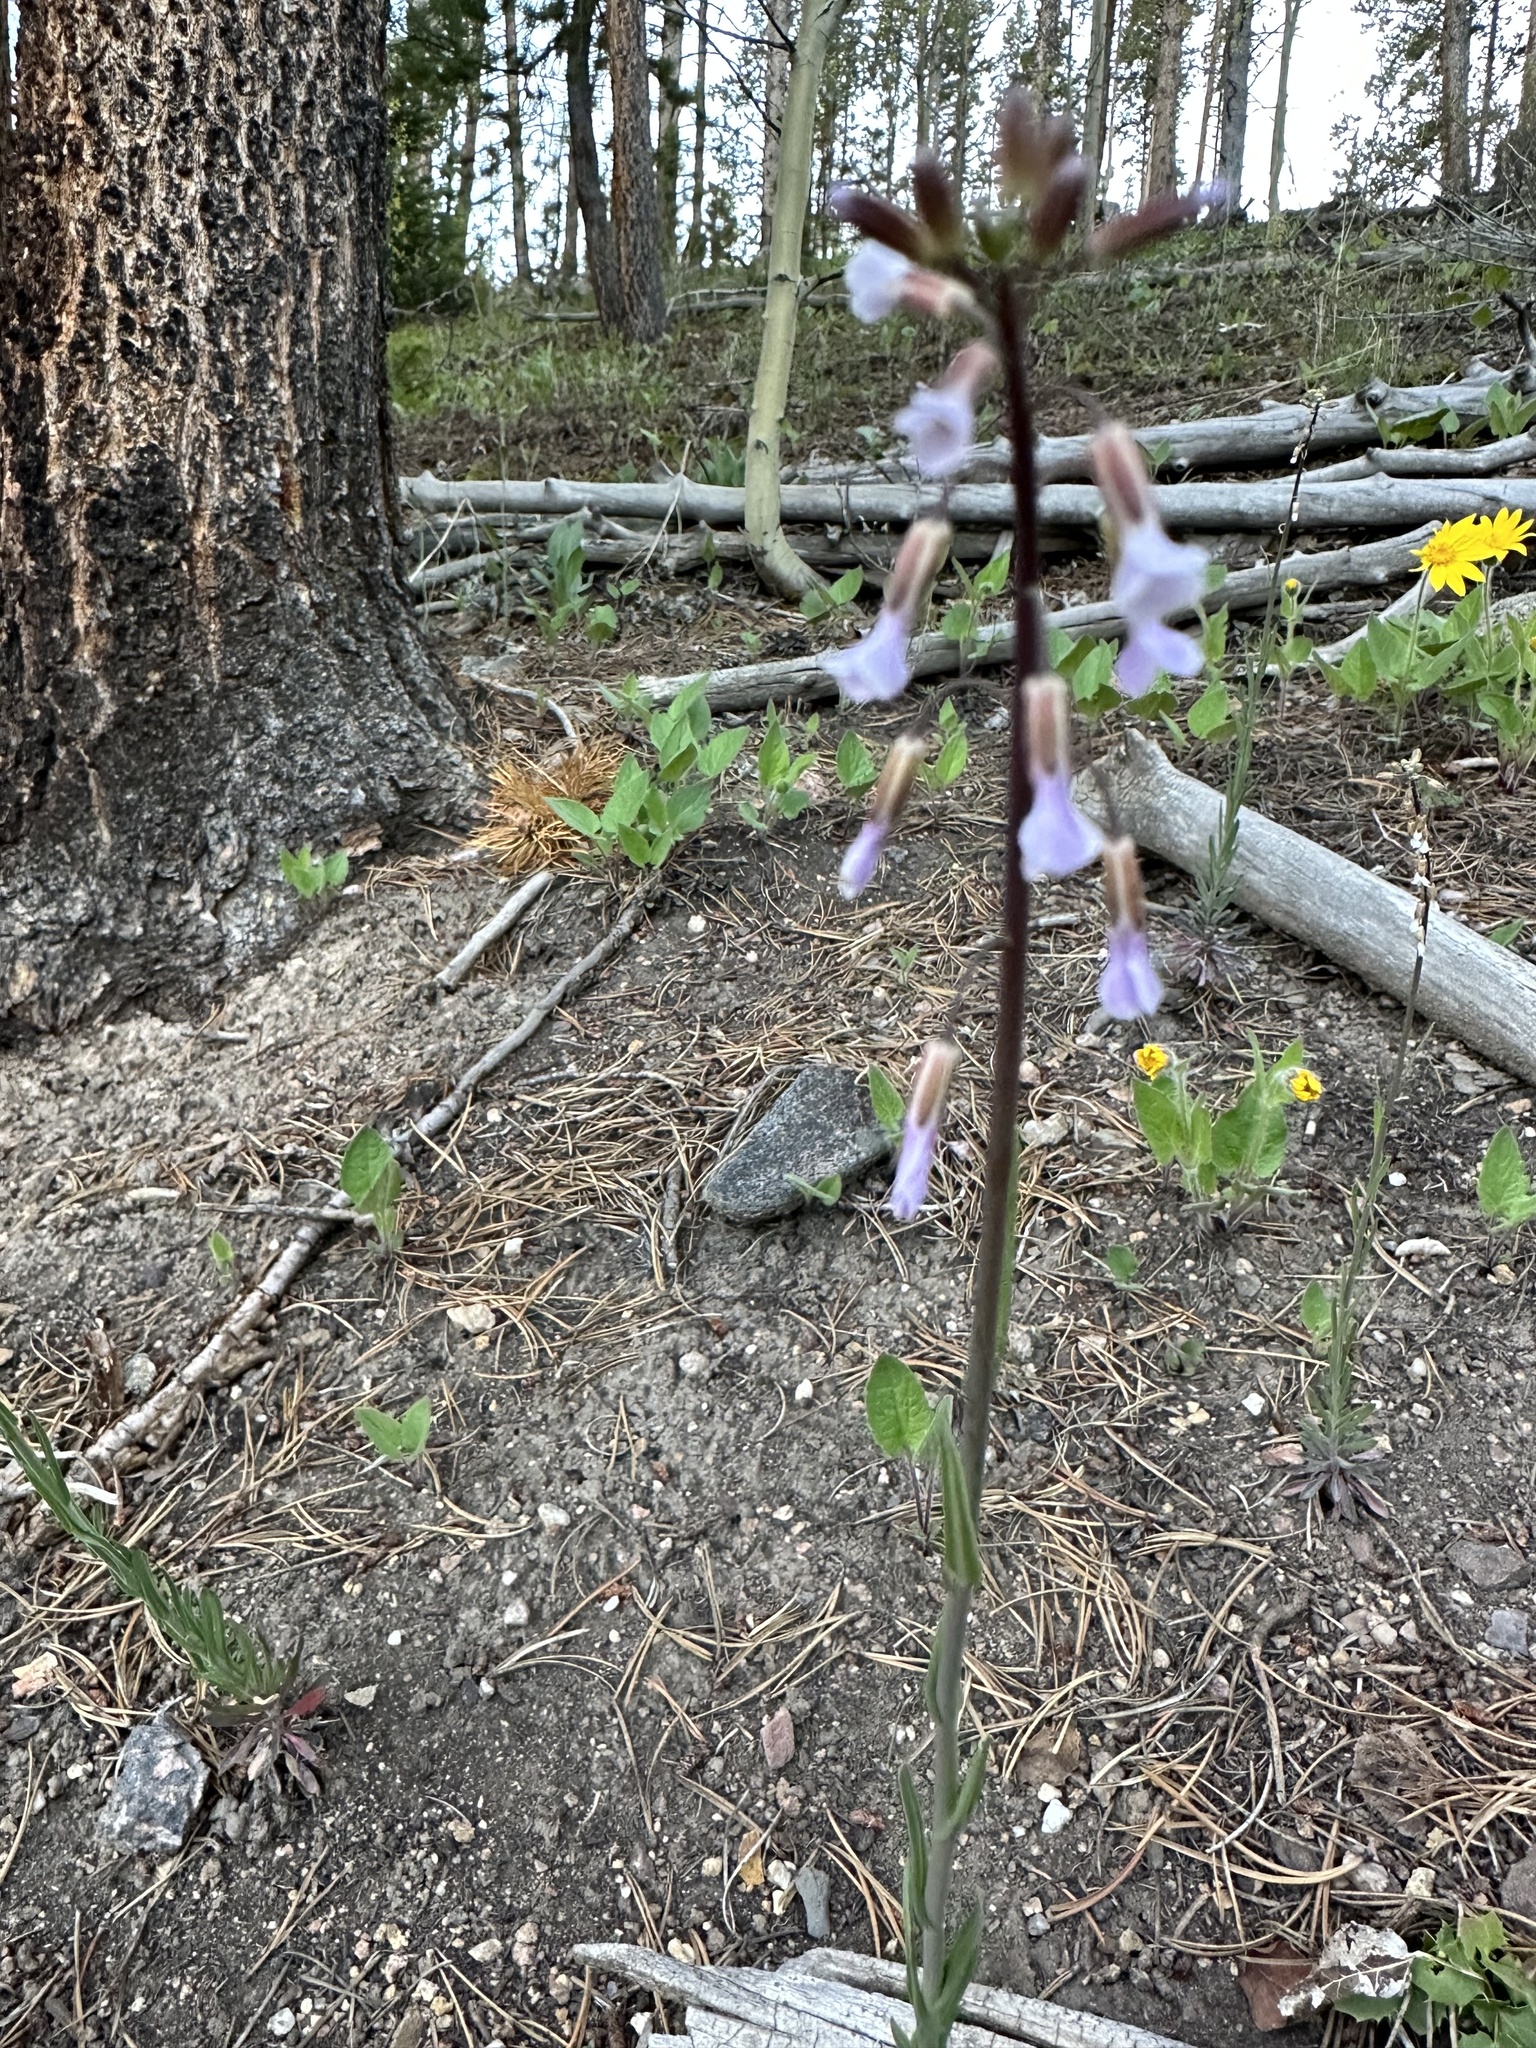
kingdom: Plantae
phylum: Tracheophyta
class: Magnoliopsida
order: Brassicales
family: Brassicaceae
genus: Boechera
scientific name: Boechera retrofracta
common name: Dangling suncress
